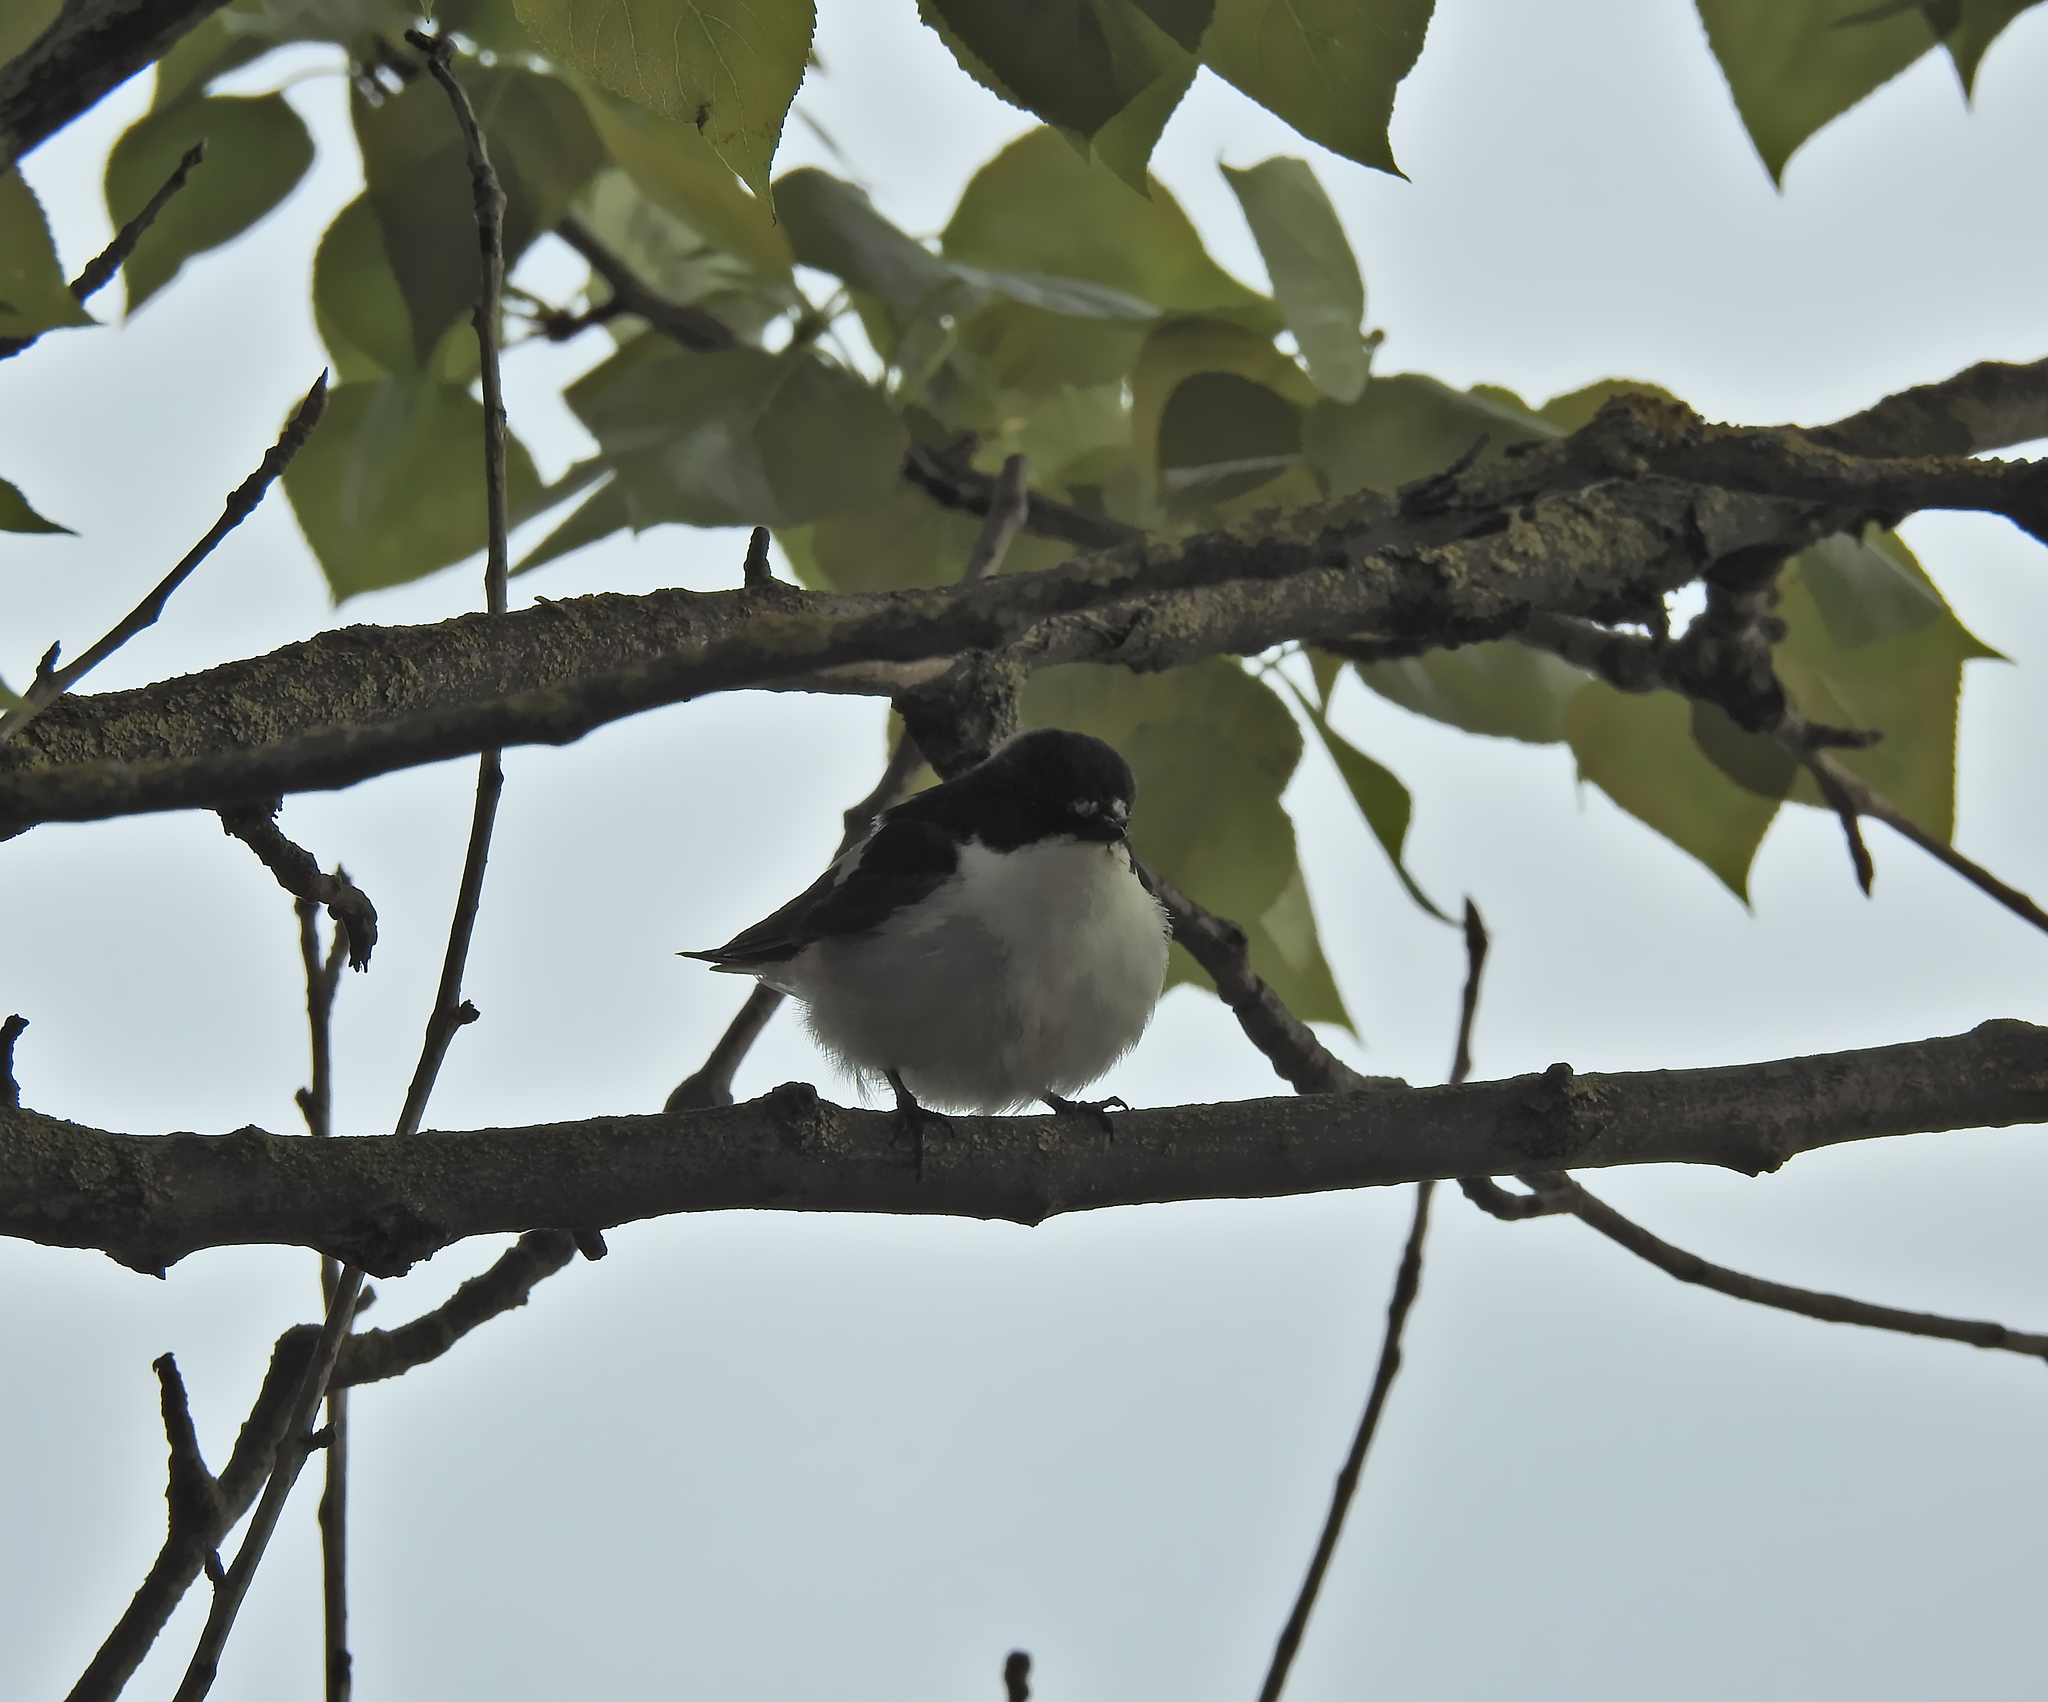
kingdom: Animalia
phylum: Chordata
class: Aves
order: Passeriformes
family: Muscicapidae
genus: Ficedula
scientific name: Ficedula hypoleuca
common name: European pied flycatcher
